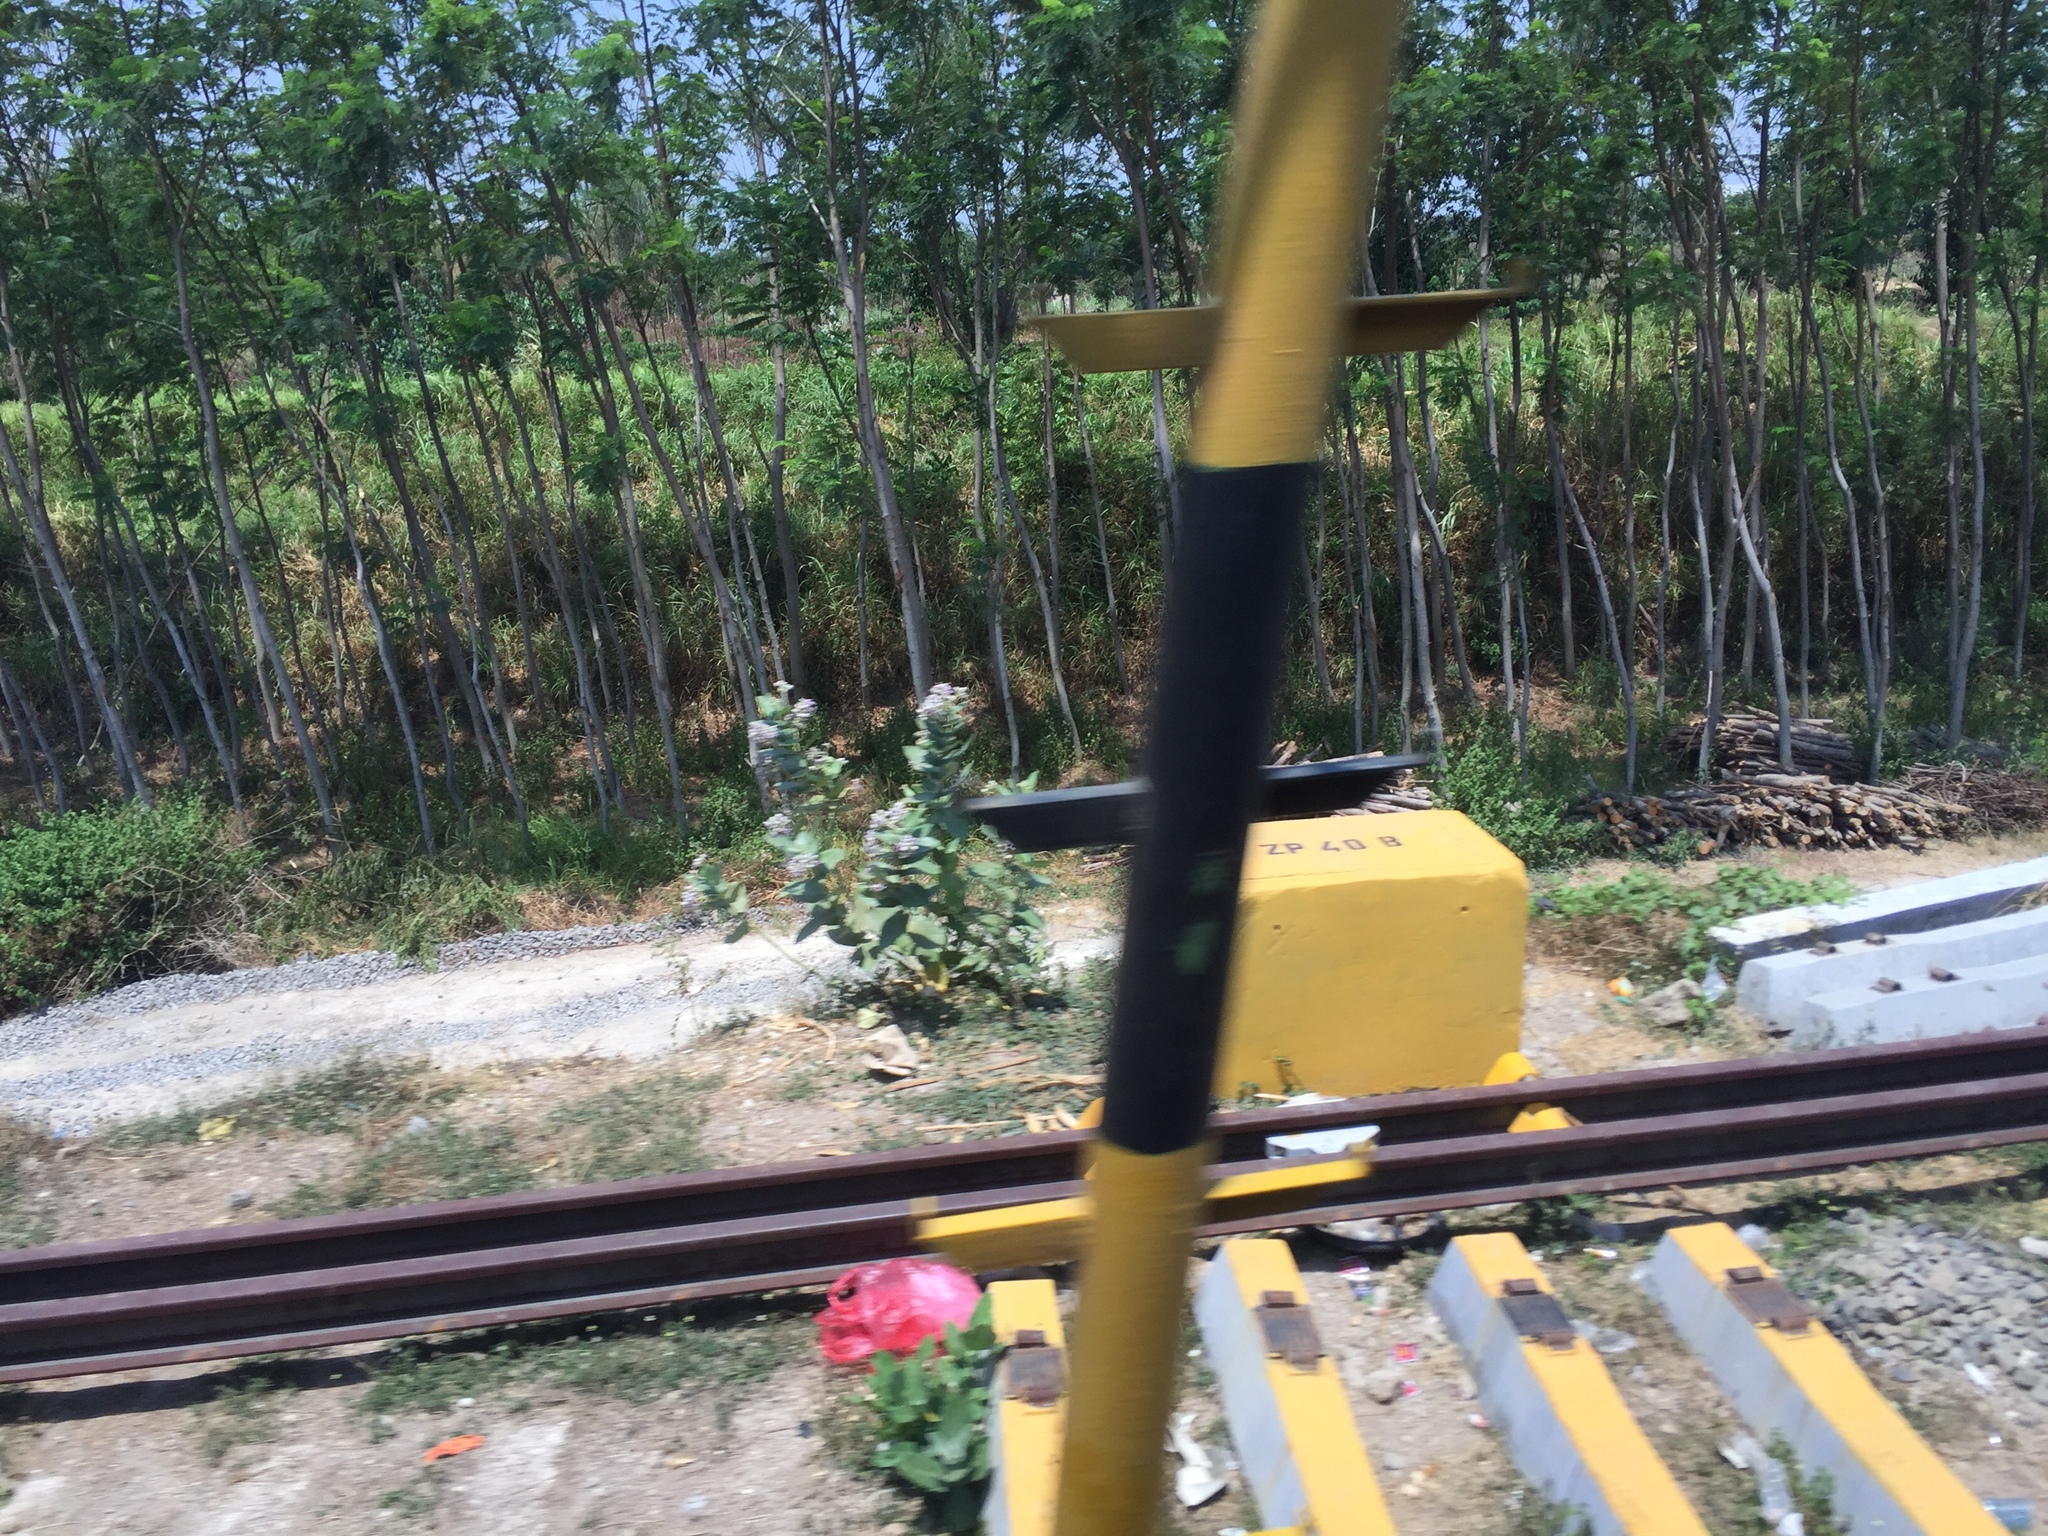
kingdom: Plantae
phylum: Tracheophyta
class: Magnoliopsida
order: Gentianales
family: Apocynaceae
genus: Calotropis
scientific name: Calotropis procera
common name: Roostertree
